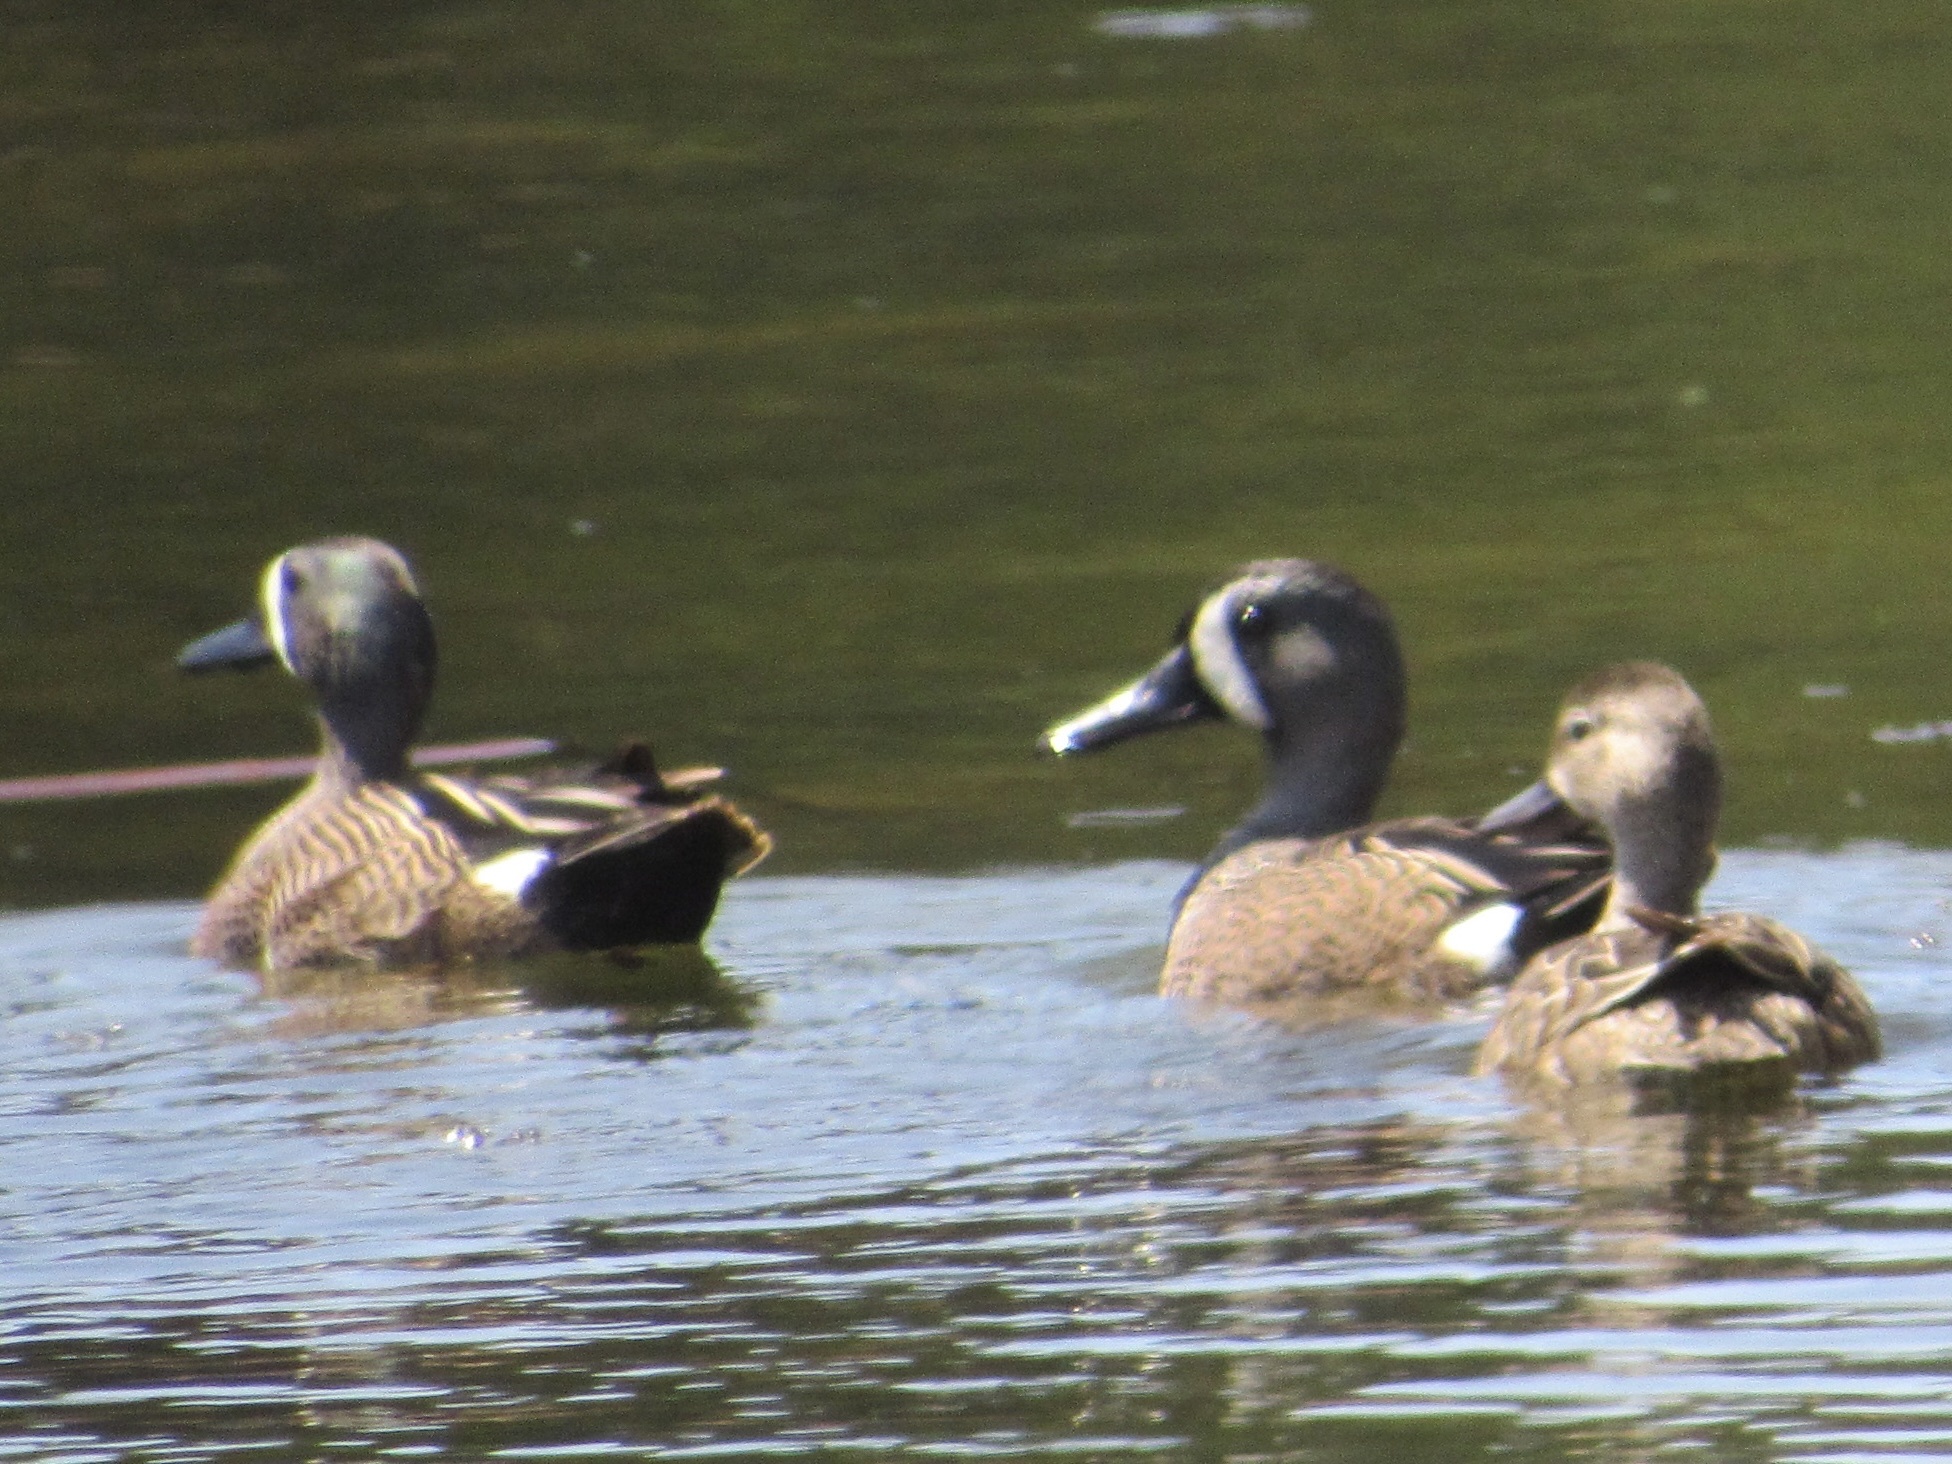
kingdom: Animalia
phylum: Chordata
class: Aves
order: Anseriformes
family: Anatidae
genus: Spatula
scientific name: Spatula discors
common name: Blue-winged teal
